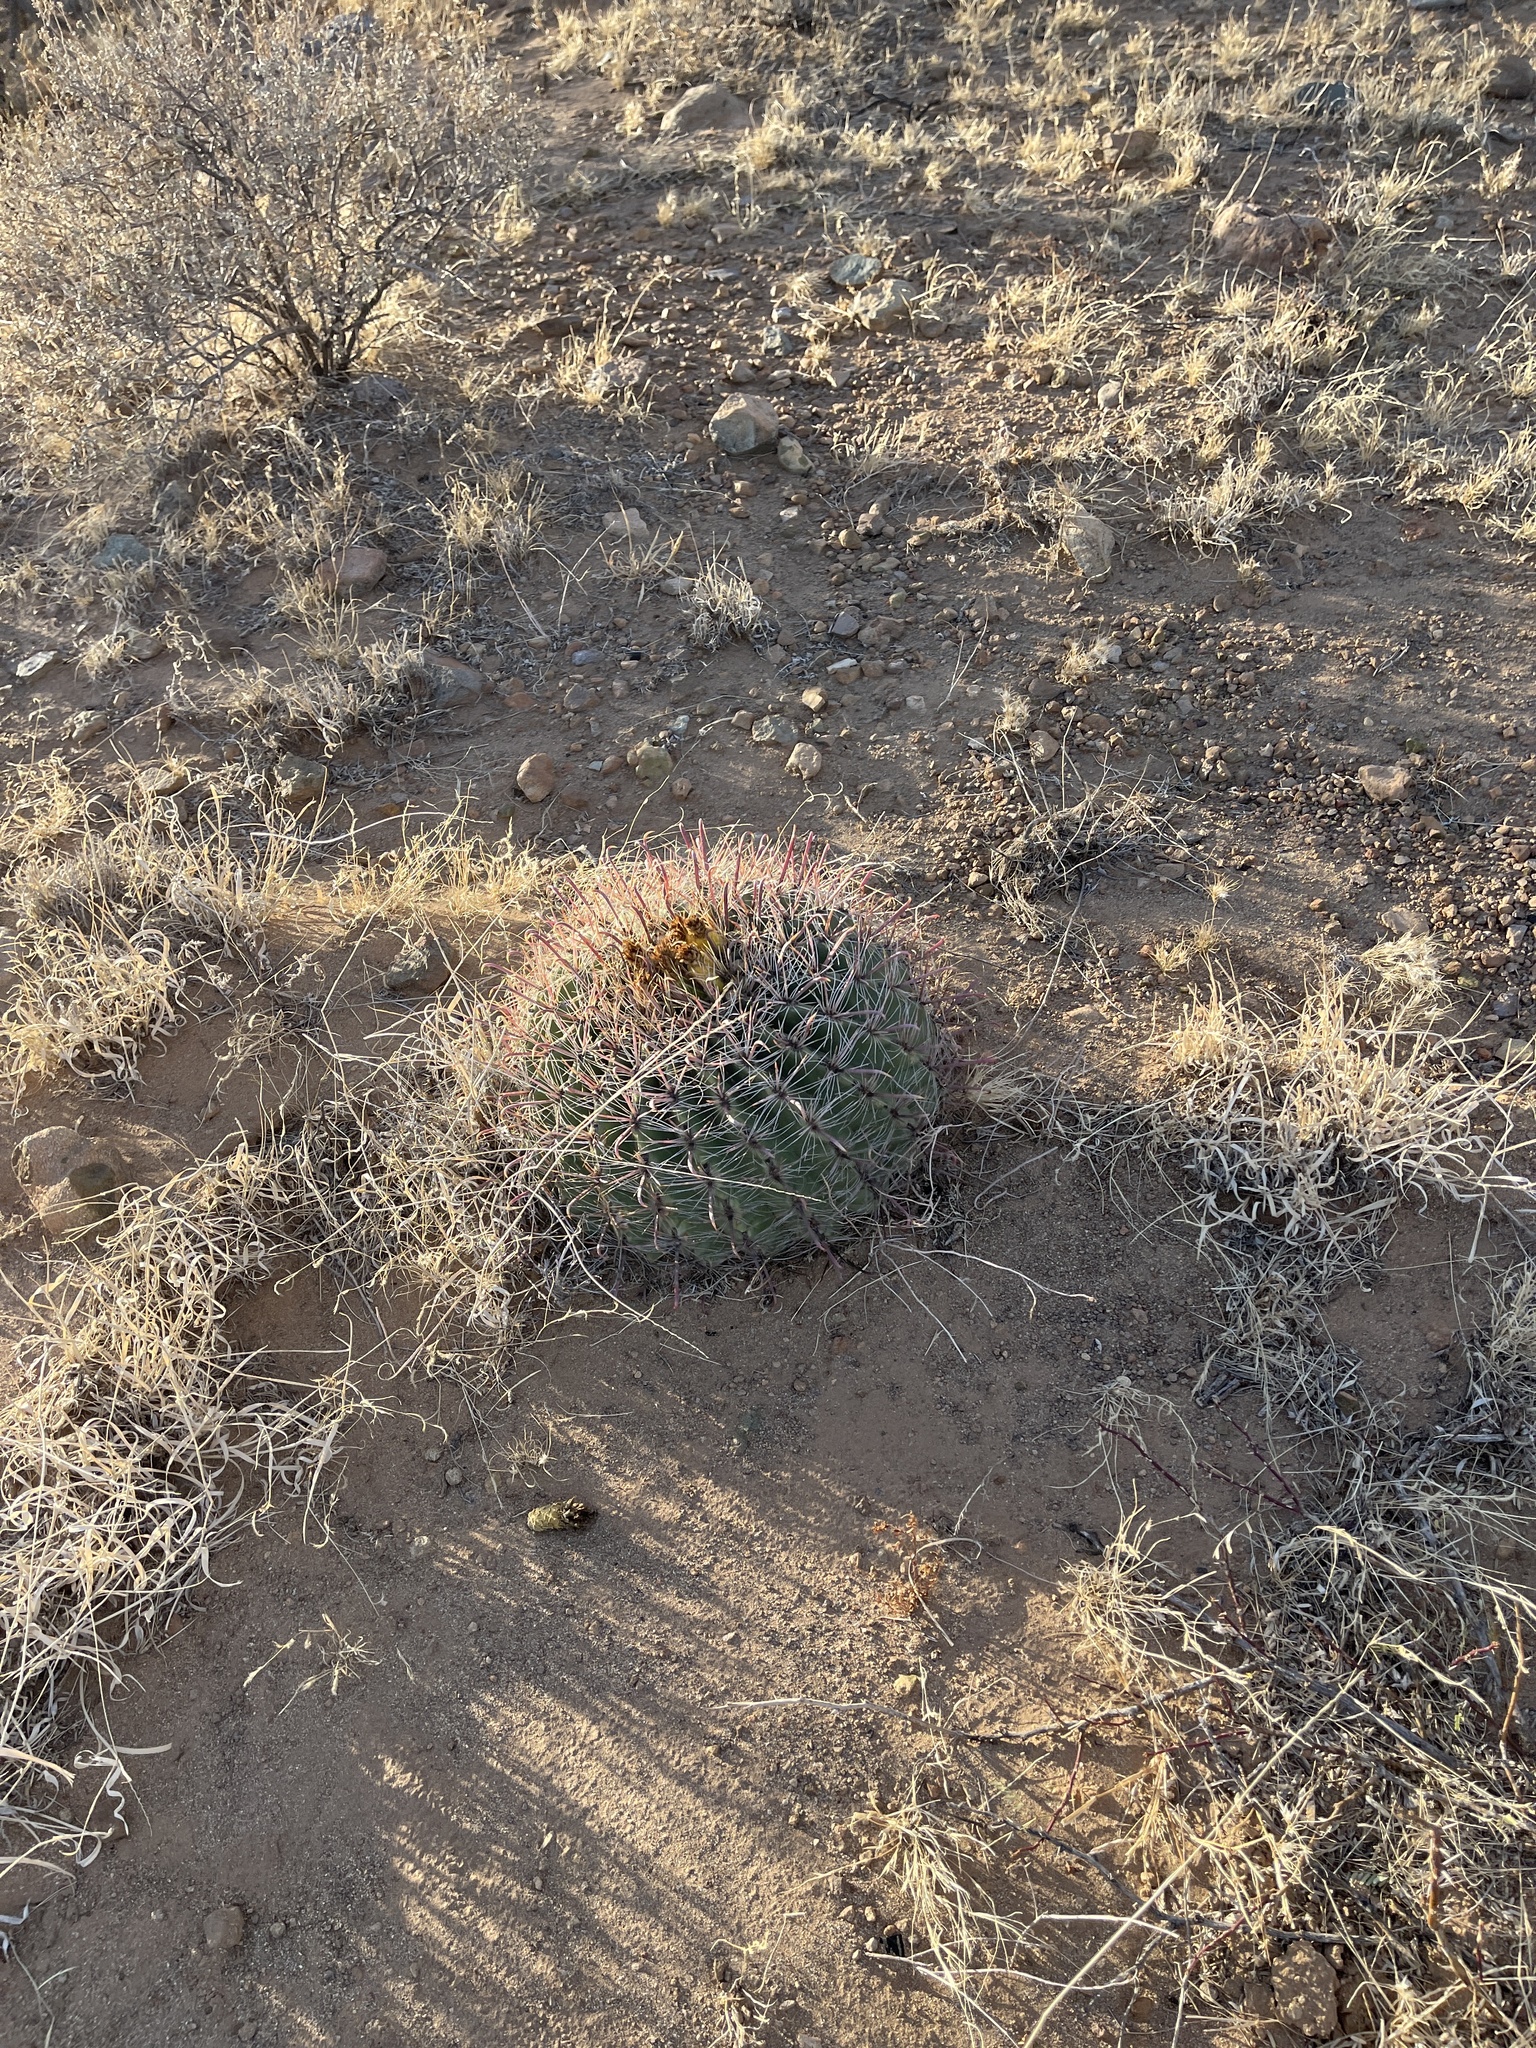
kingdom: Plantae
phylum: Tracheophyta
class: Magnoliopsida
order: Caryophyllales
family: Cactaceae
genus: Ferocactus
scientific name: Ferocactus wislizeni
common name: Candy barrel cactus
